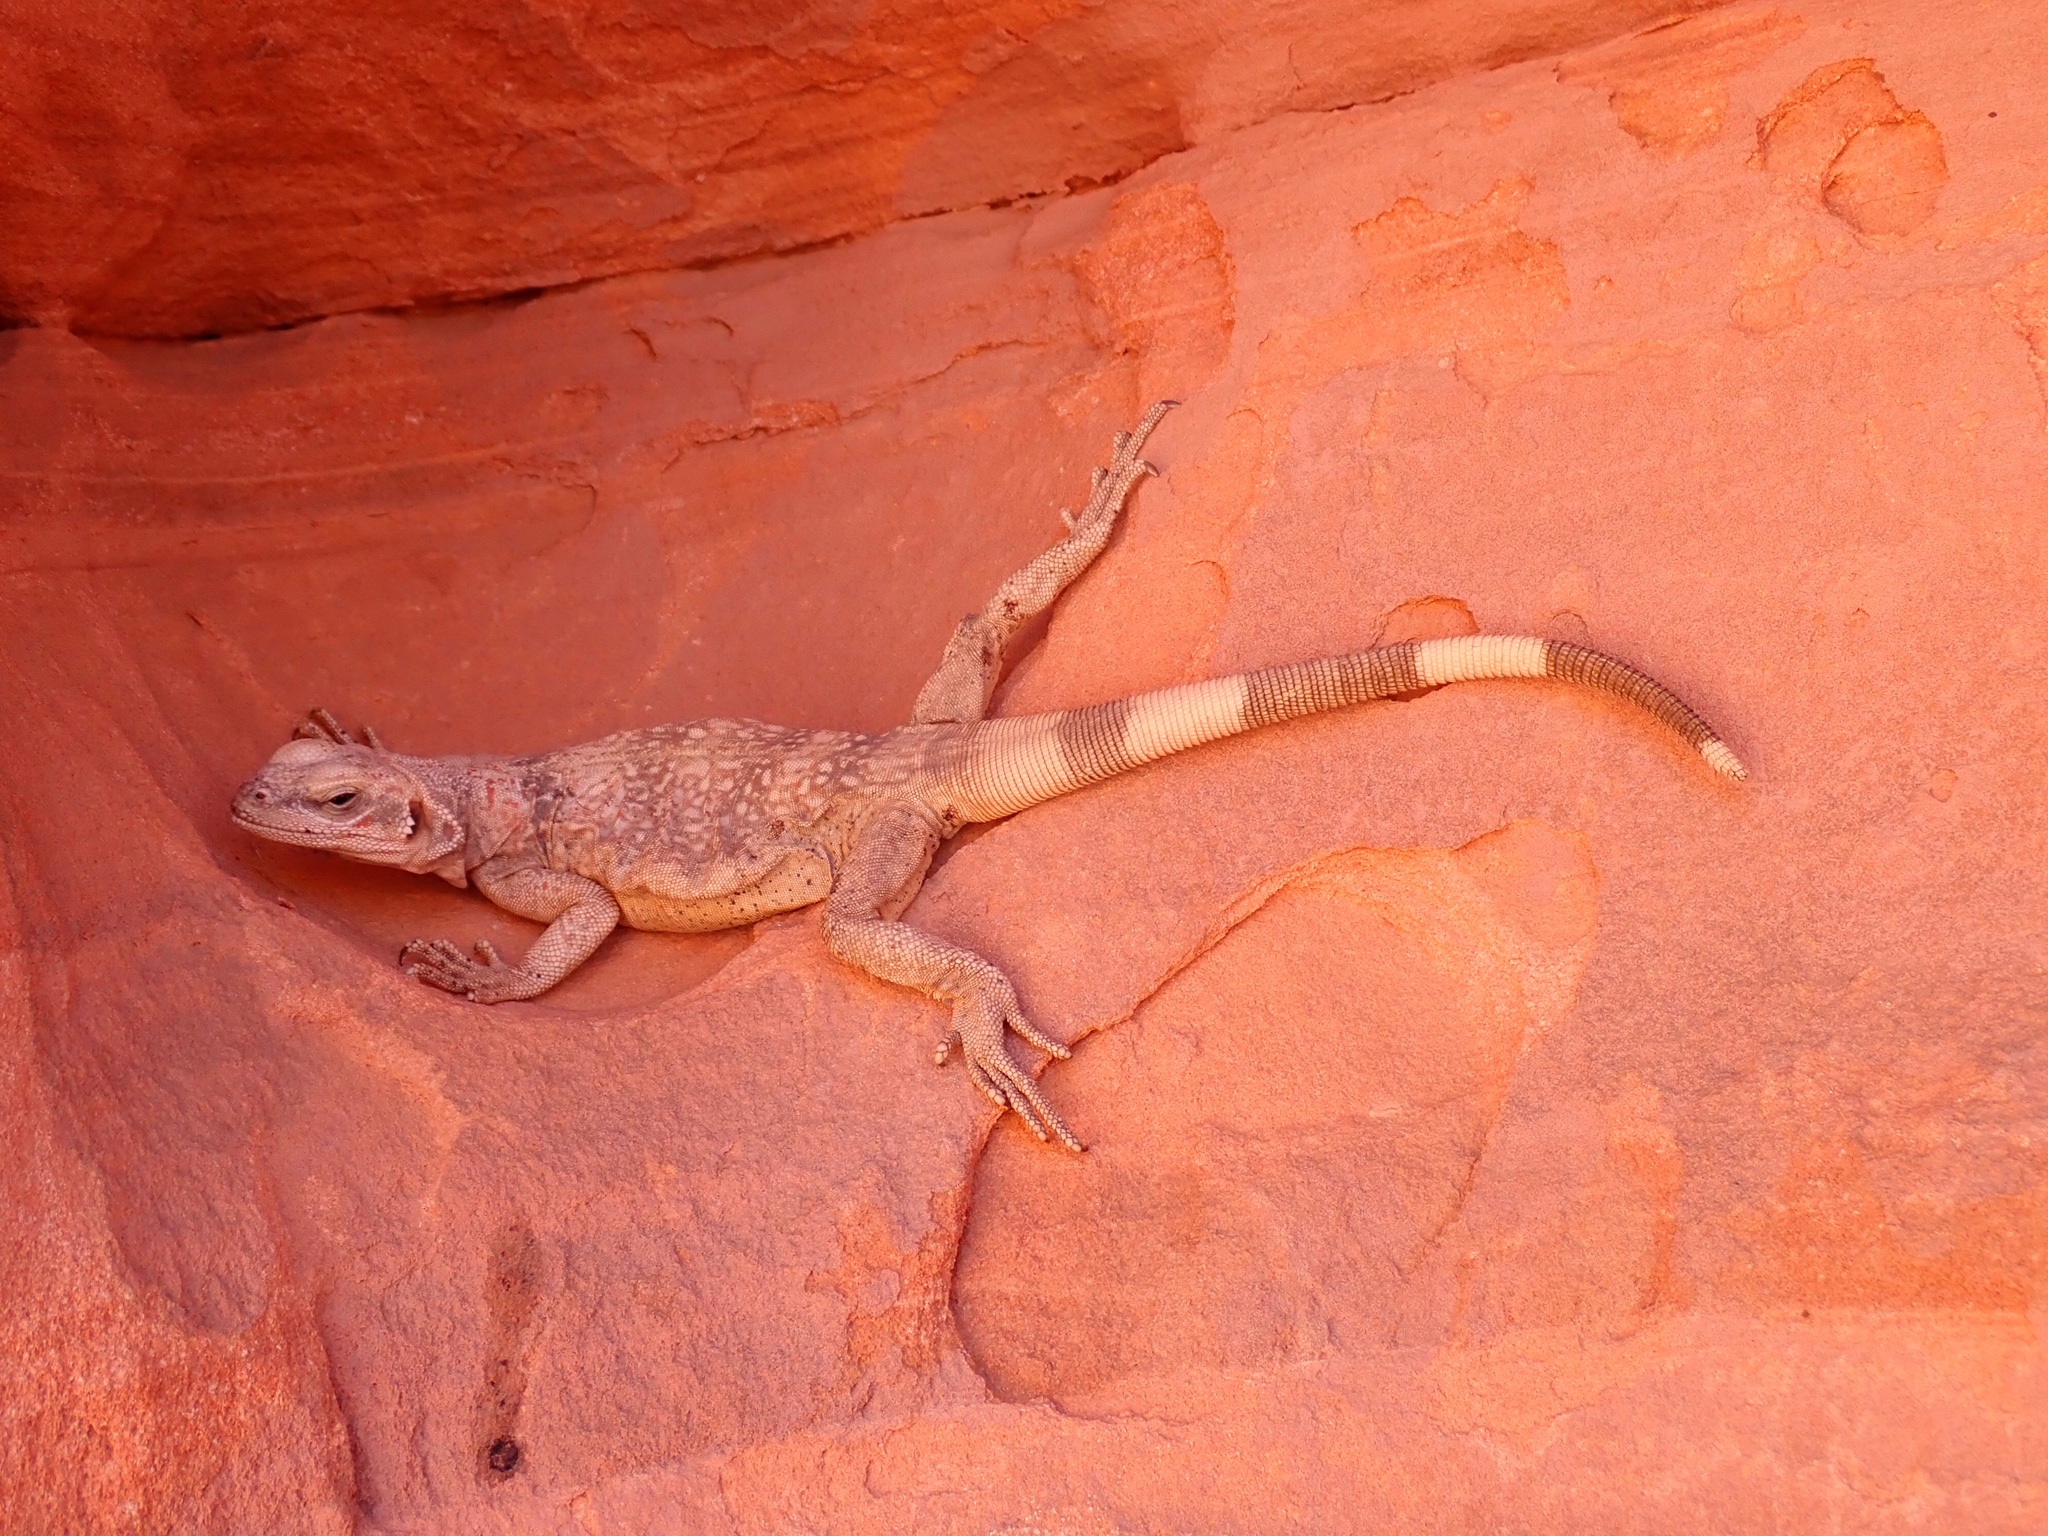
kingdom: Animalia
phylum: Chordata
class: Squamata
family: Iguanidae
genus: Sauromalus
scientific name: Sauromalus ater
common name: Northern chuckwalla
